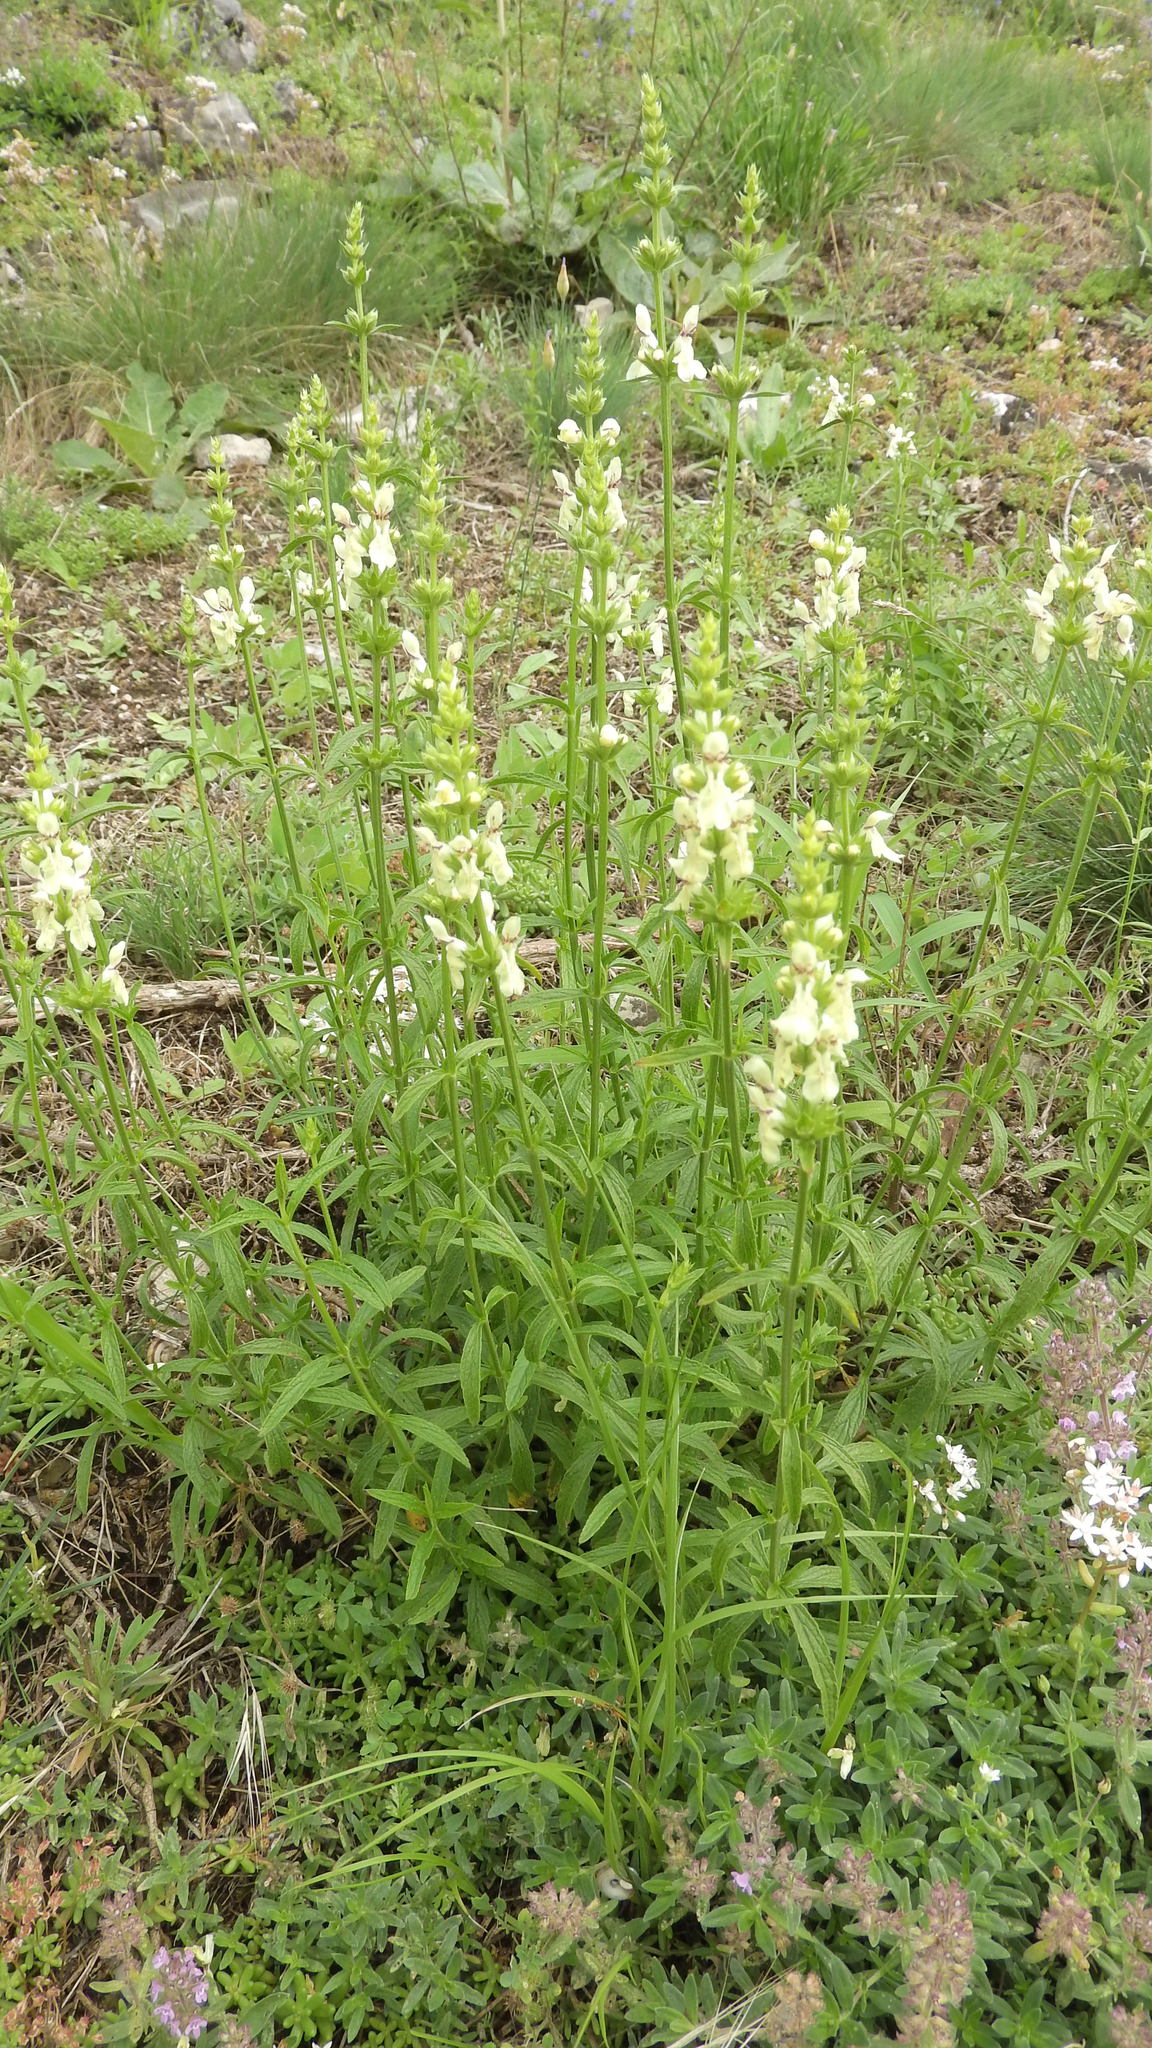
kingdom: Plantae
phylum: Tracheophyta
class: Magnoliopsida
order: Lamiales
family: Lamiaceae
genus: Stachys
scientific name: Stachys recta
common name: Perennial yellow-woundwort
